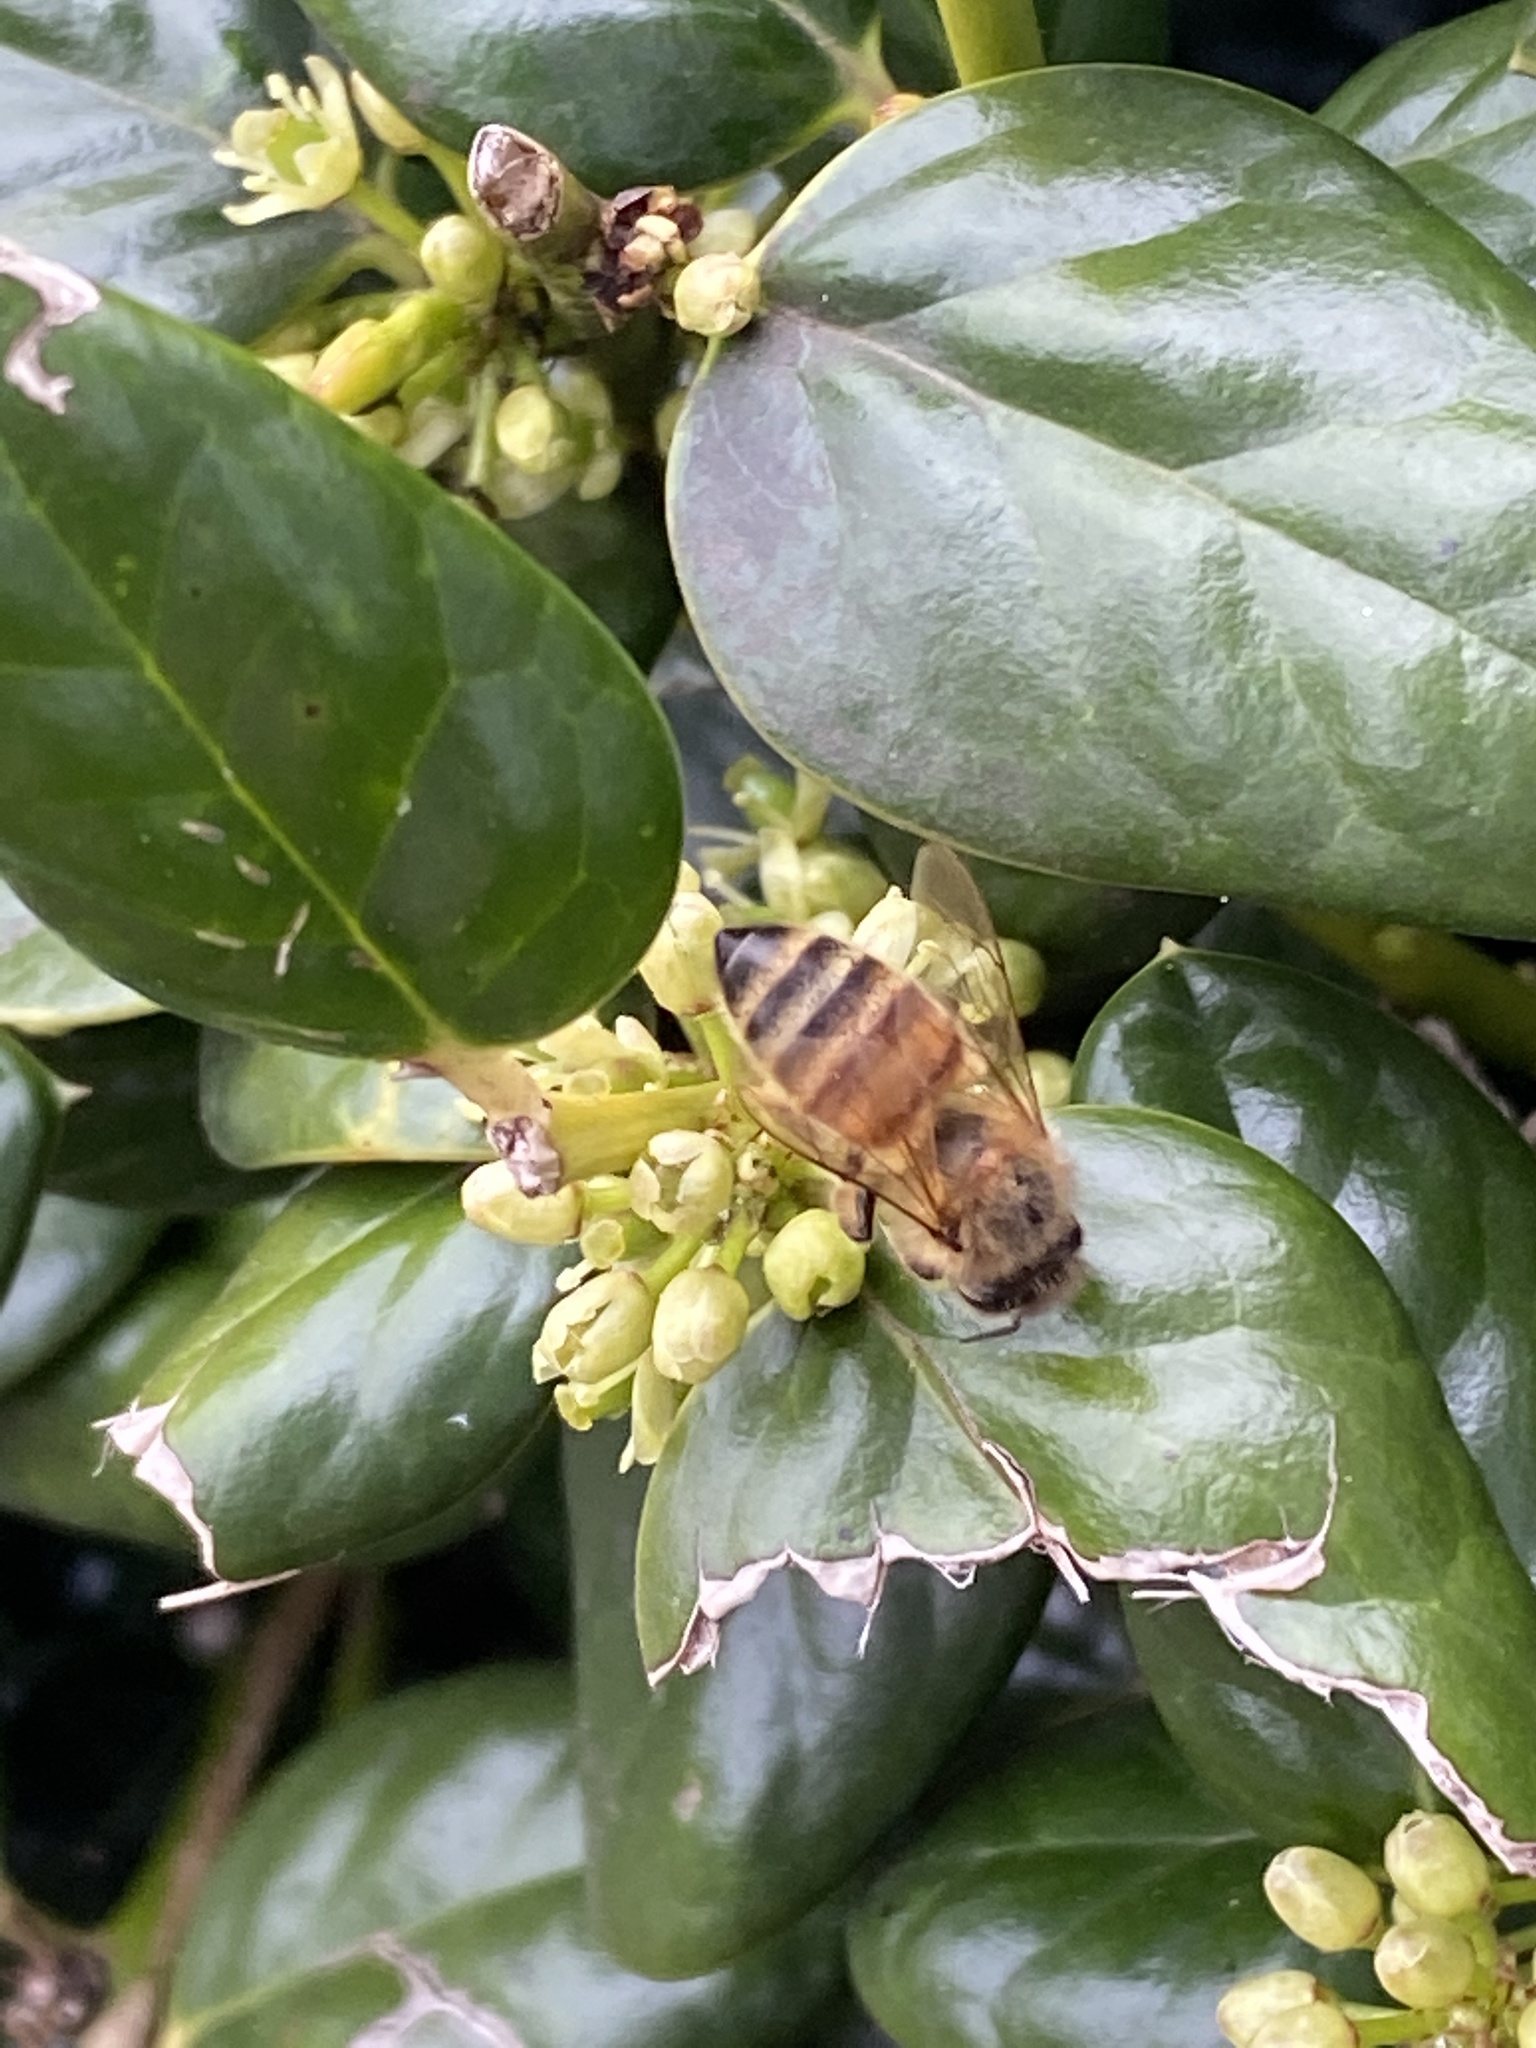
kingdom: Animalia
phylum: Arthropoda
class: Insecta
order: Hymenoptera
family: Apidae
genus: Apis
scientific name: Apis mellifera
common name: Honey bee
